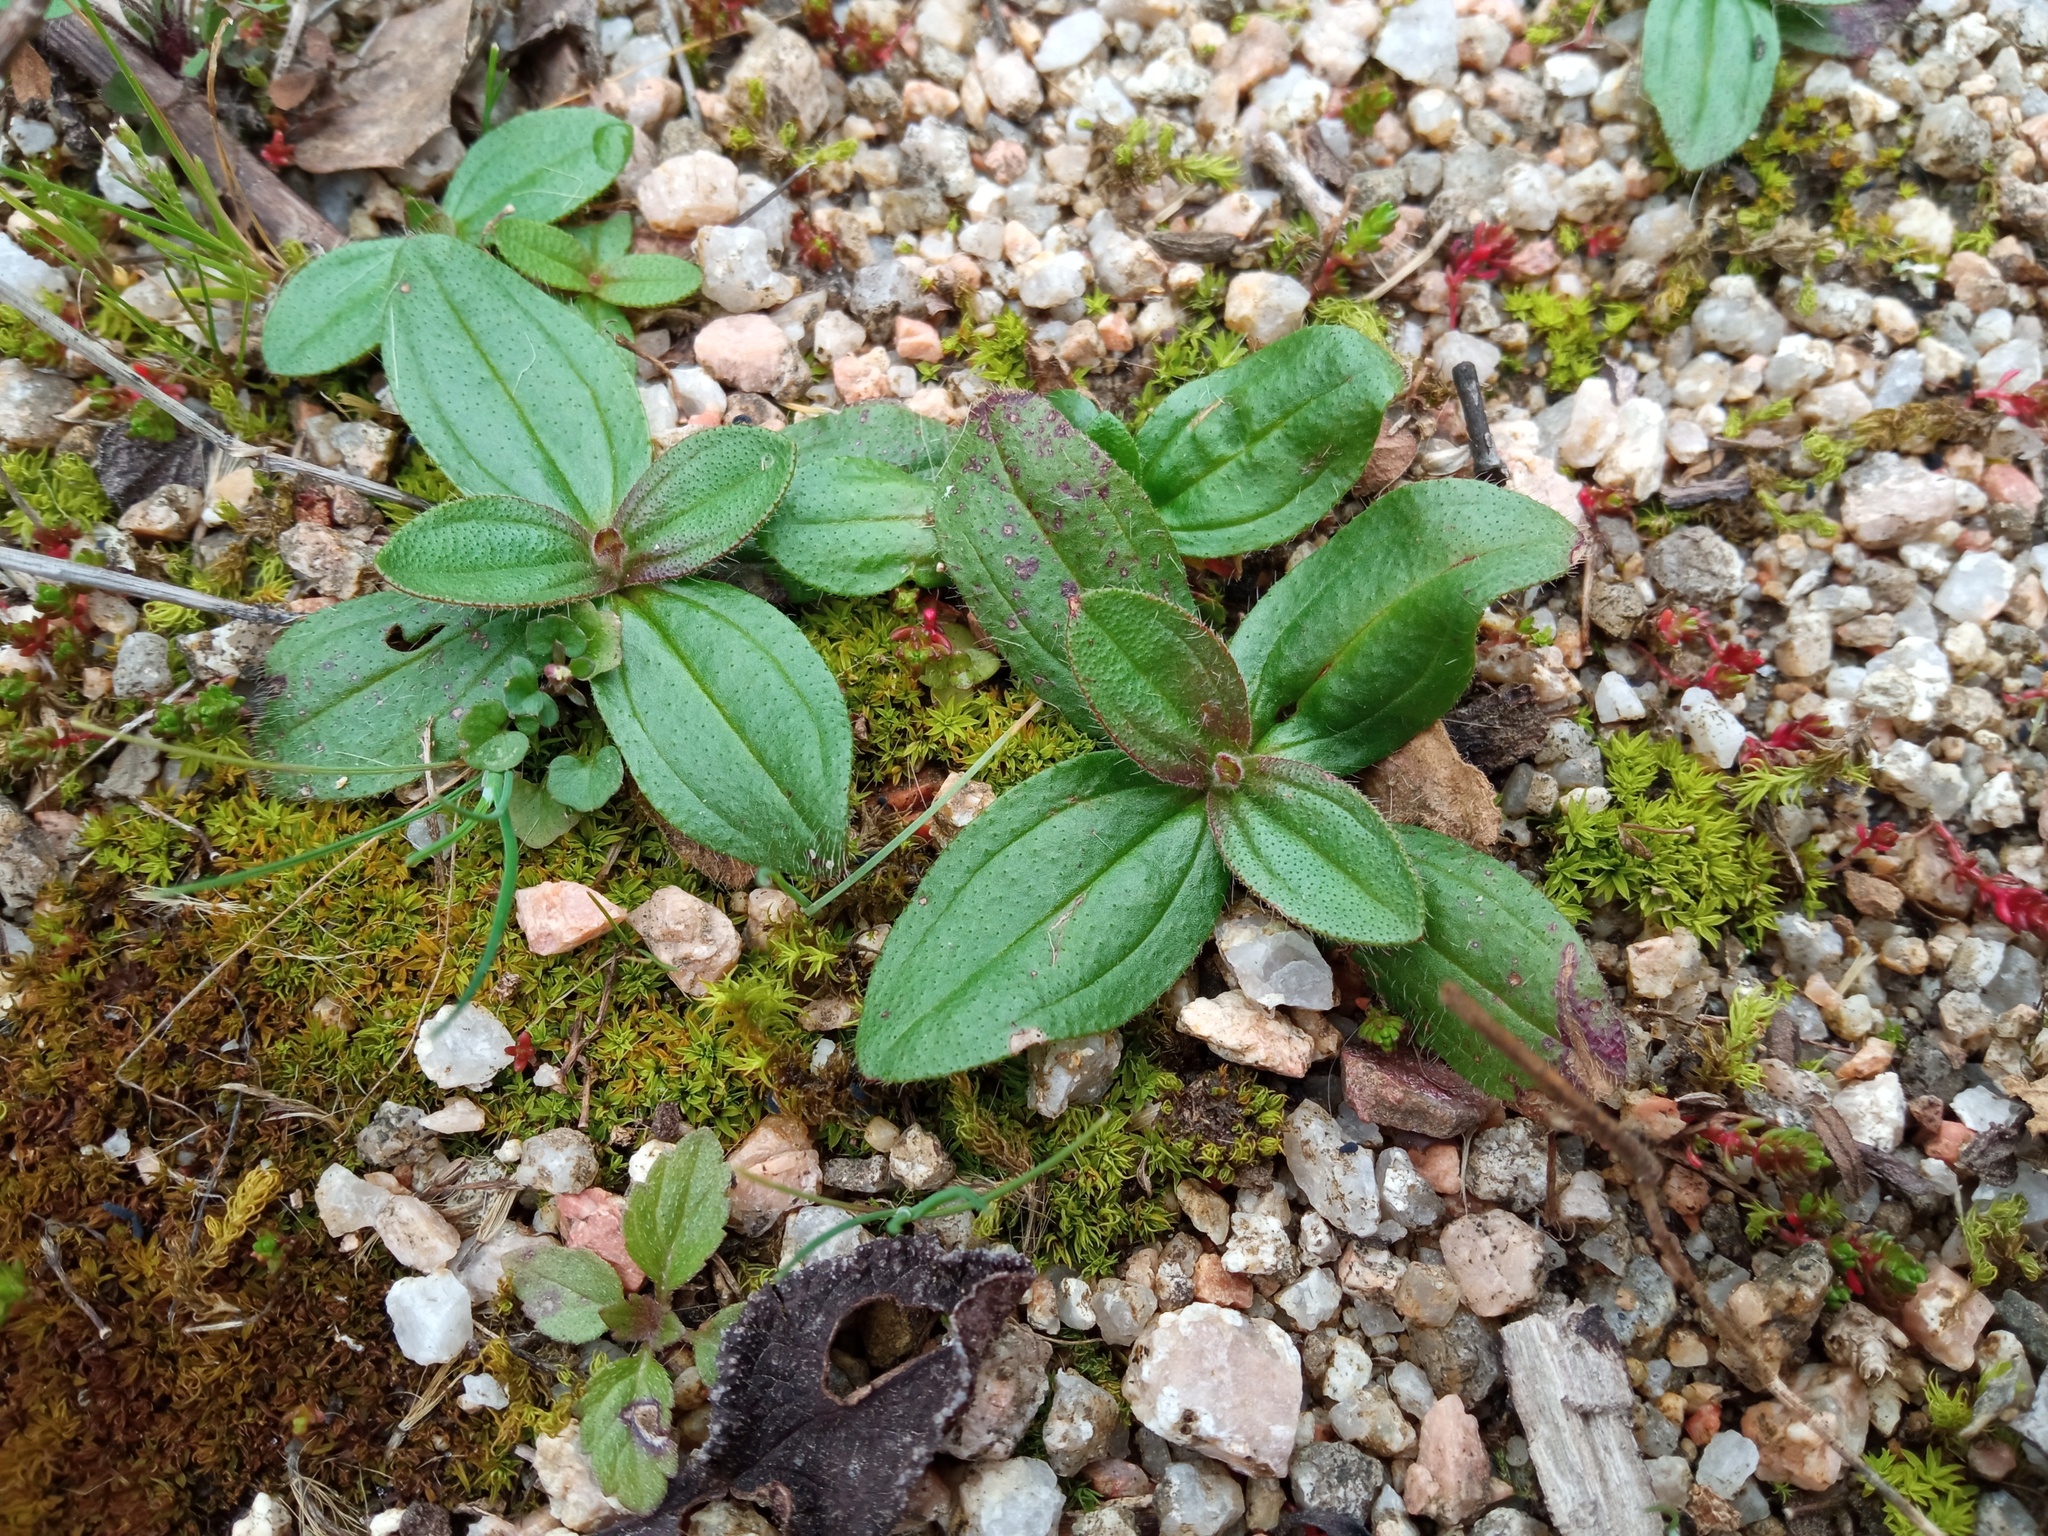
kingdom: Plantae
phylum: Tracheophyta
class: Magnoliopsida
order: Malvales
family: Cistaceae
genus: Tuberaria
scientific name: Tuberaria guttata
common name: Spotted rock-rose
